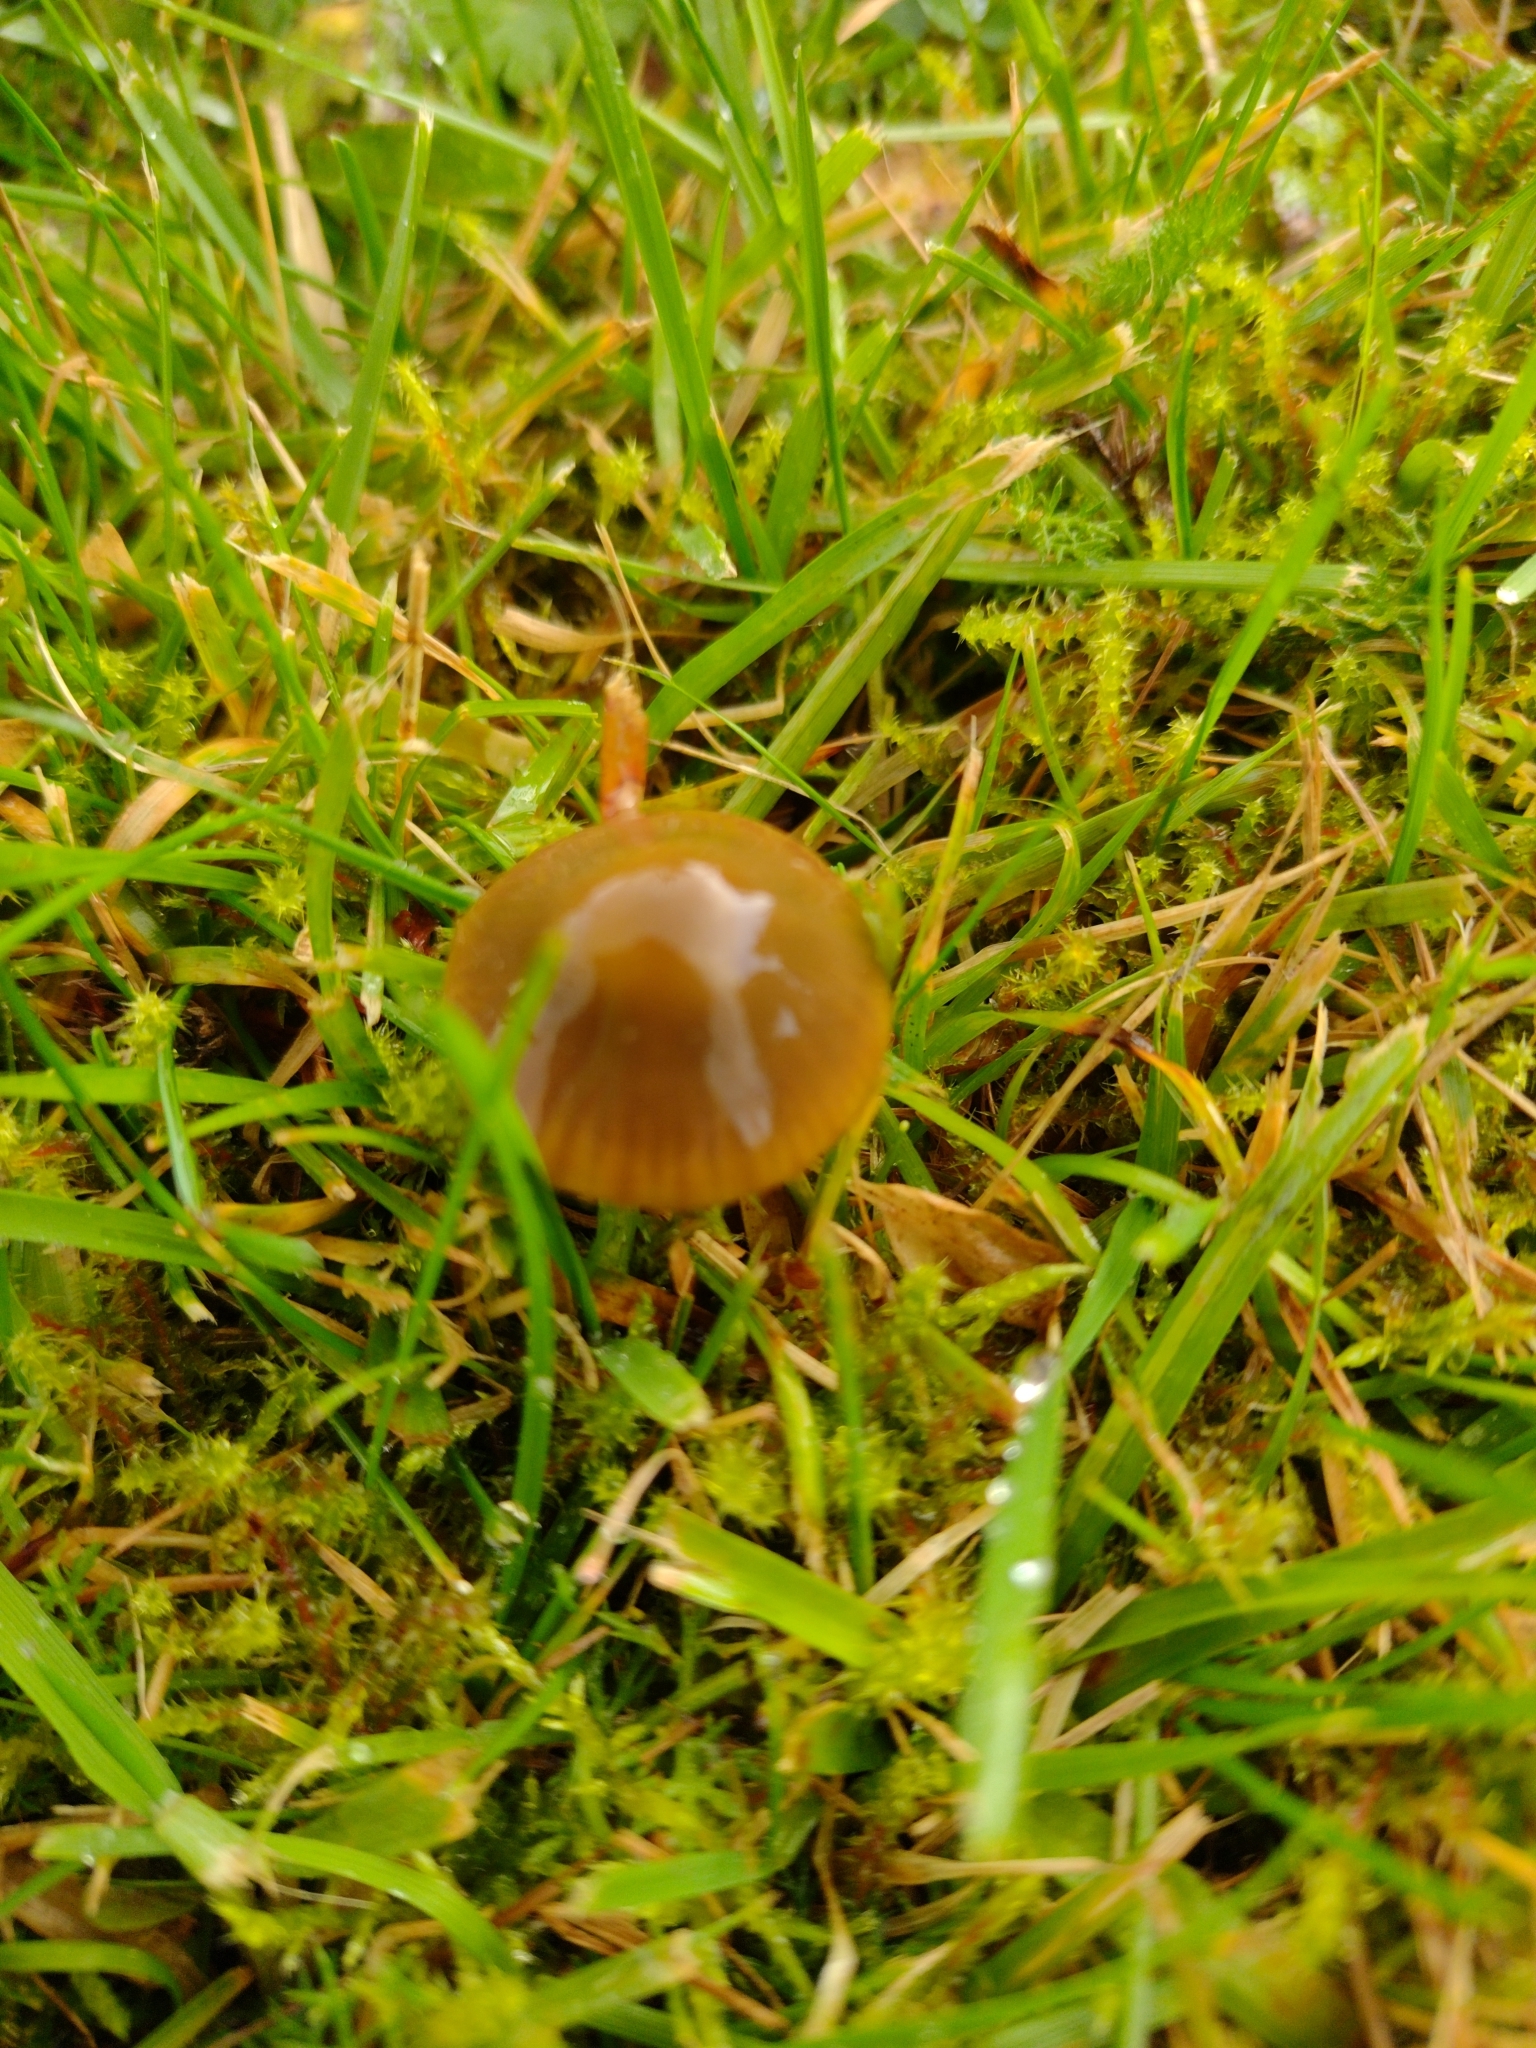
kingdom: Fungi
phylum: Basidiomycota
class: Agaricomycetes
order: Agaricales
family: Hygrophoraceae
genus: Gliophorus
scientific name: Gliophorus psittacinus
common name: Parrot wax-cap
